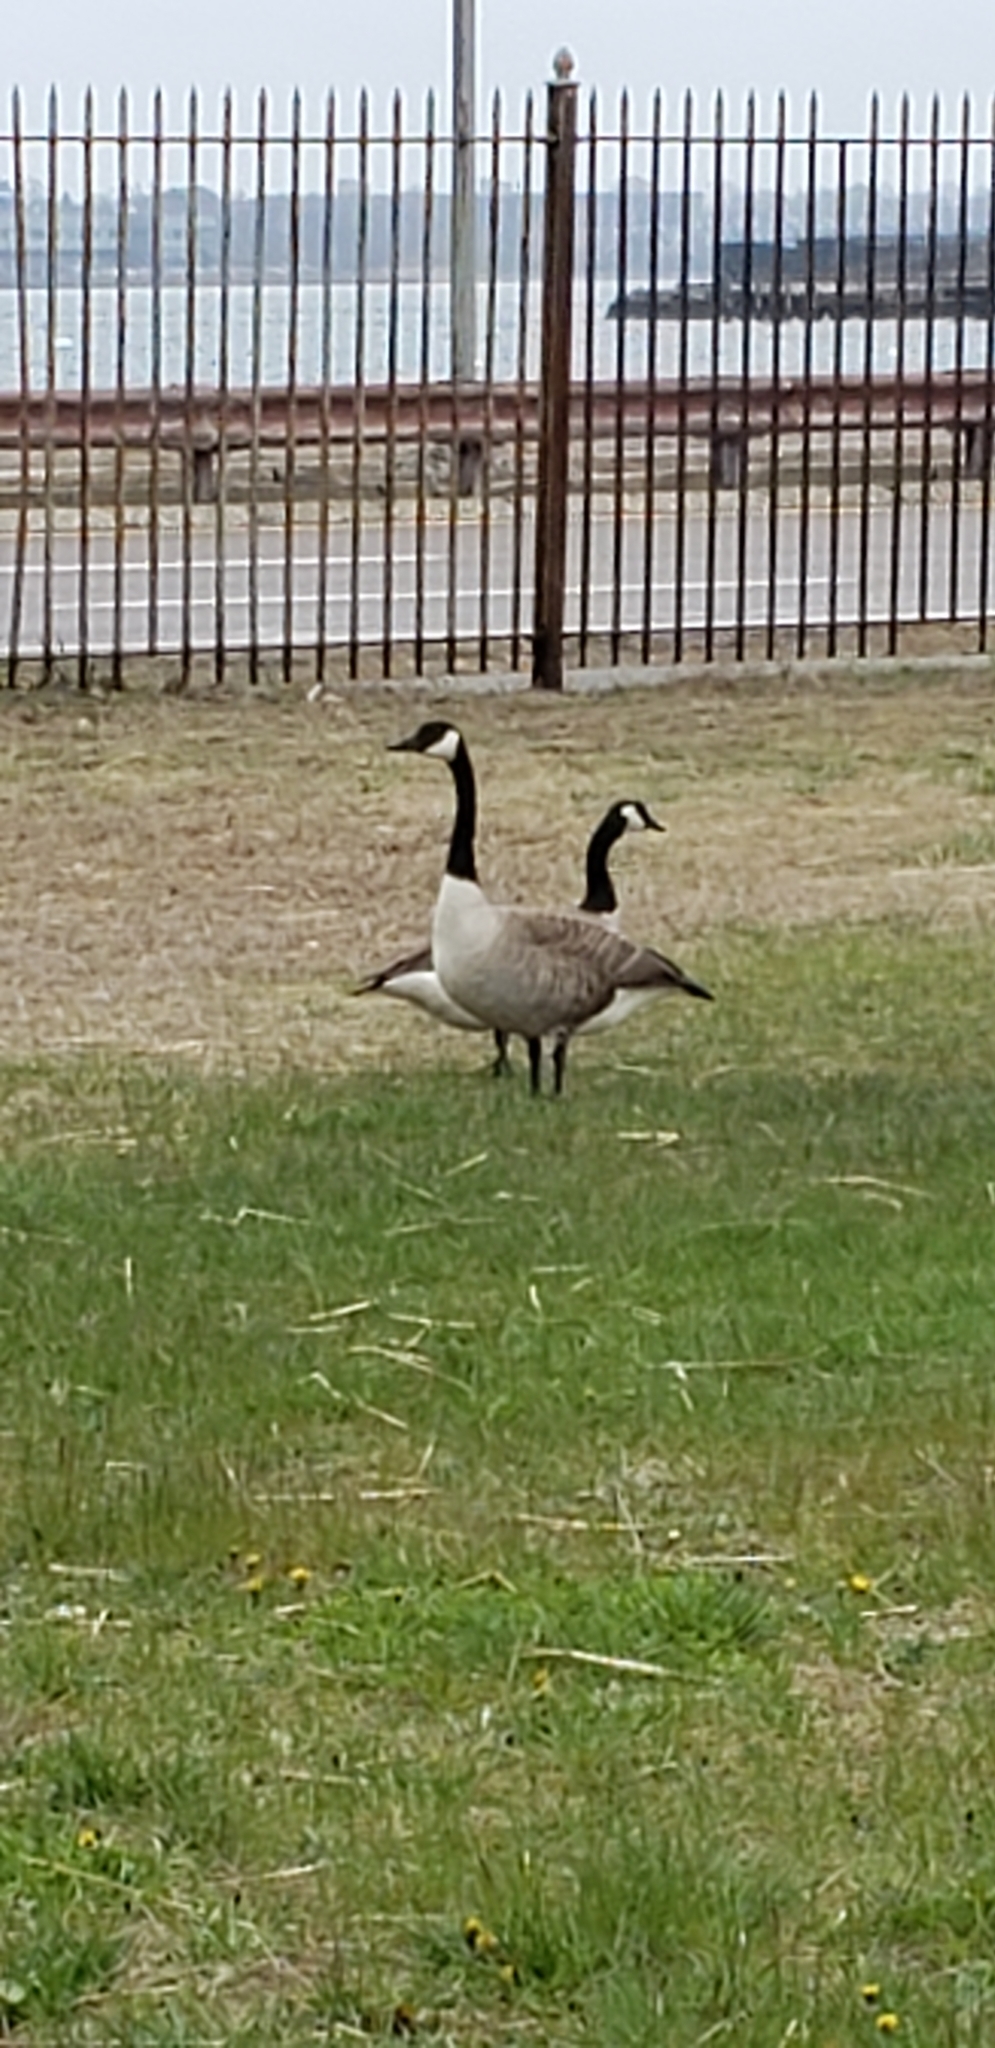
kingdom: Animalia
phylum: Chordata
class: Aves
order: Anseriformes
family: Anatidae
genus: Branta
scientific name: Branta canadensis
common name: Canada goose
